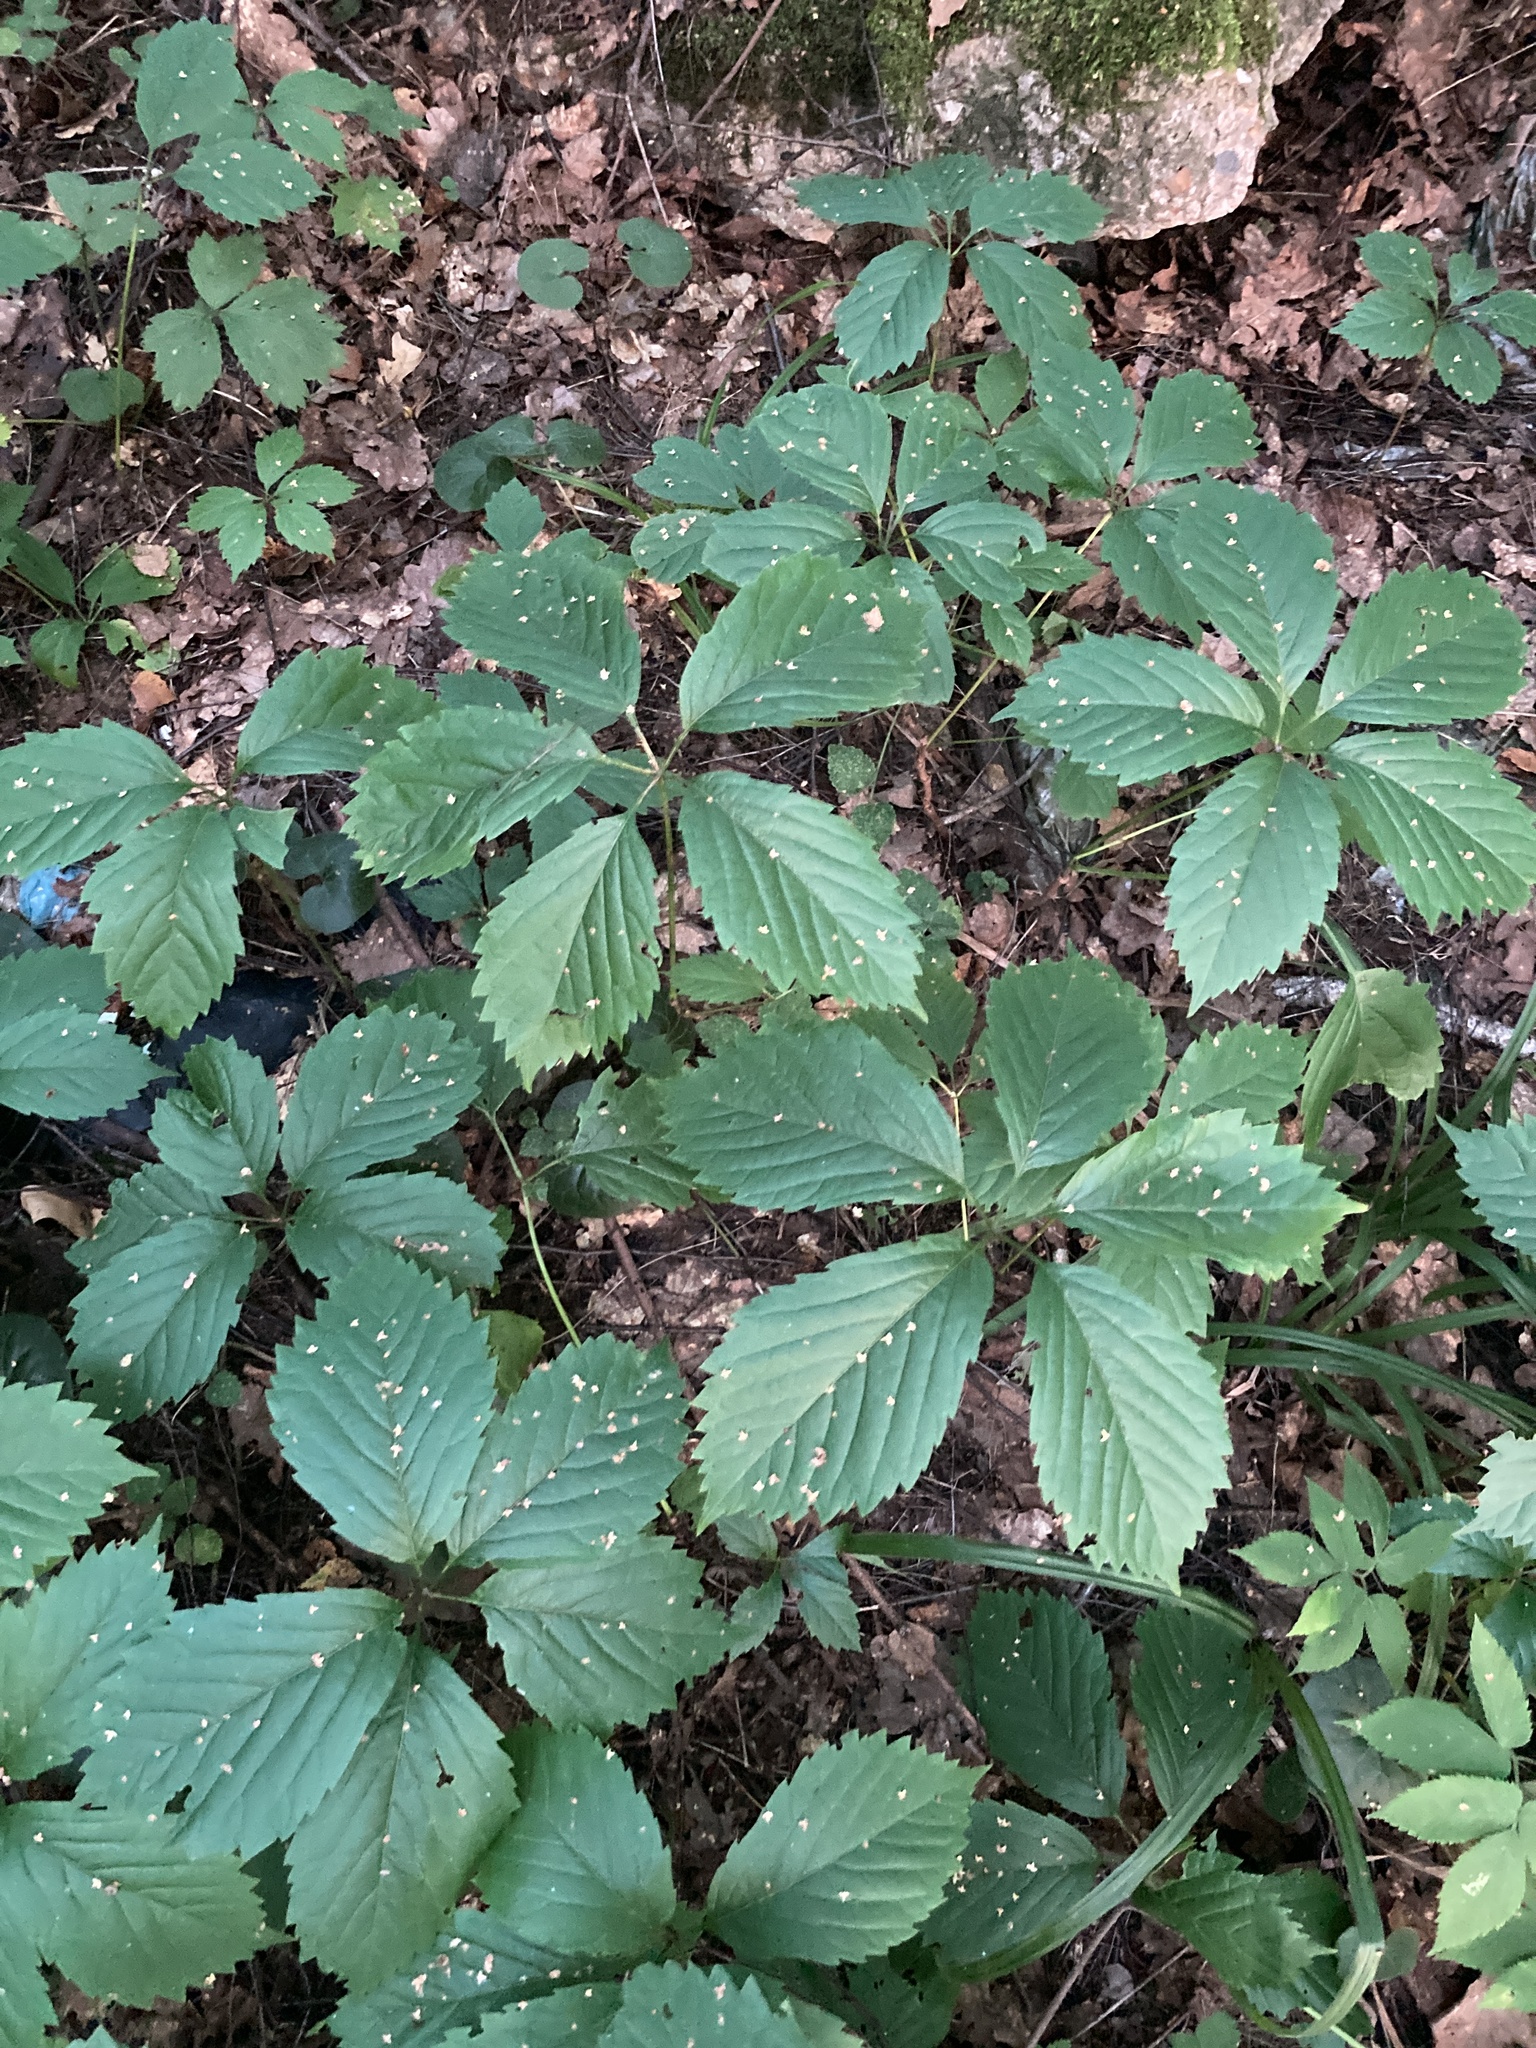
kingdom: Plantae
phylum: Tracheophyta
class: Magnoliopsida
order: Vitales
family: Vitaceae
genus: Parthenocissus
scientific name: Parthenocissus inserta
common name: False virginia-creeper
